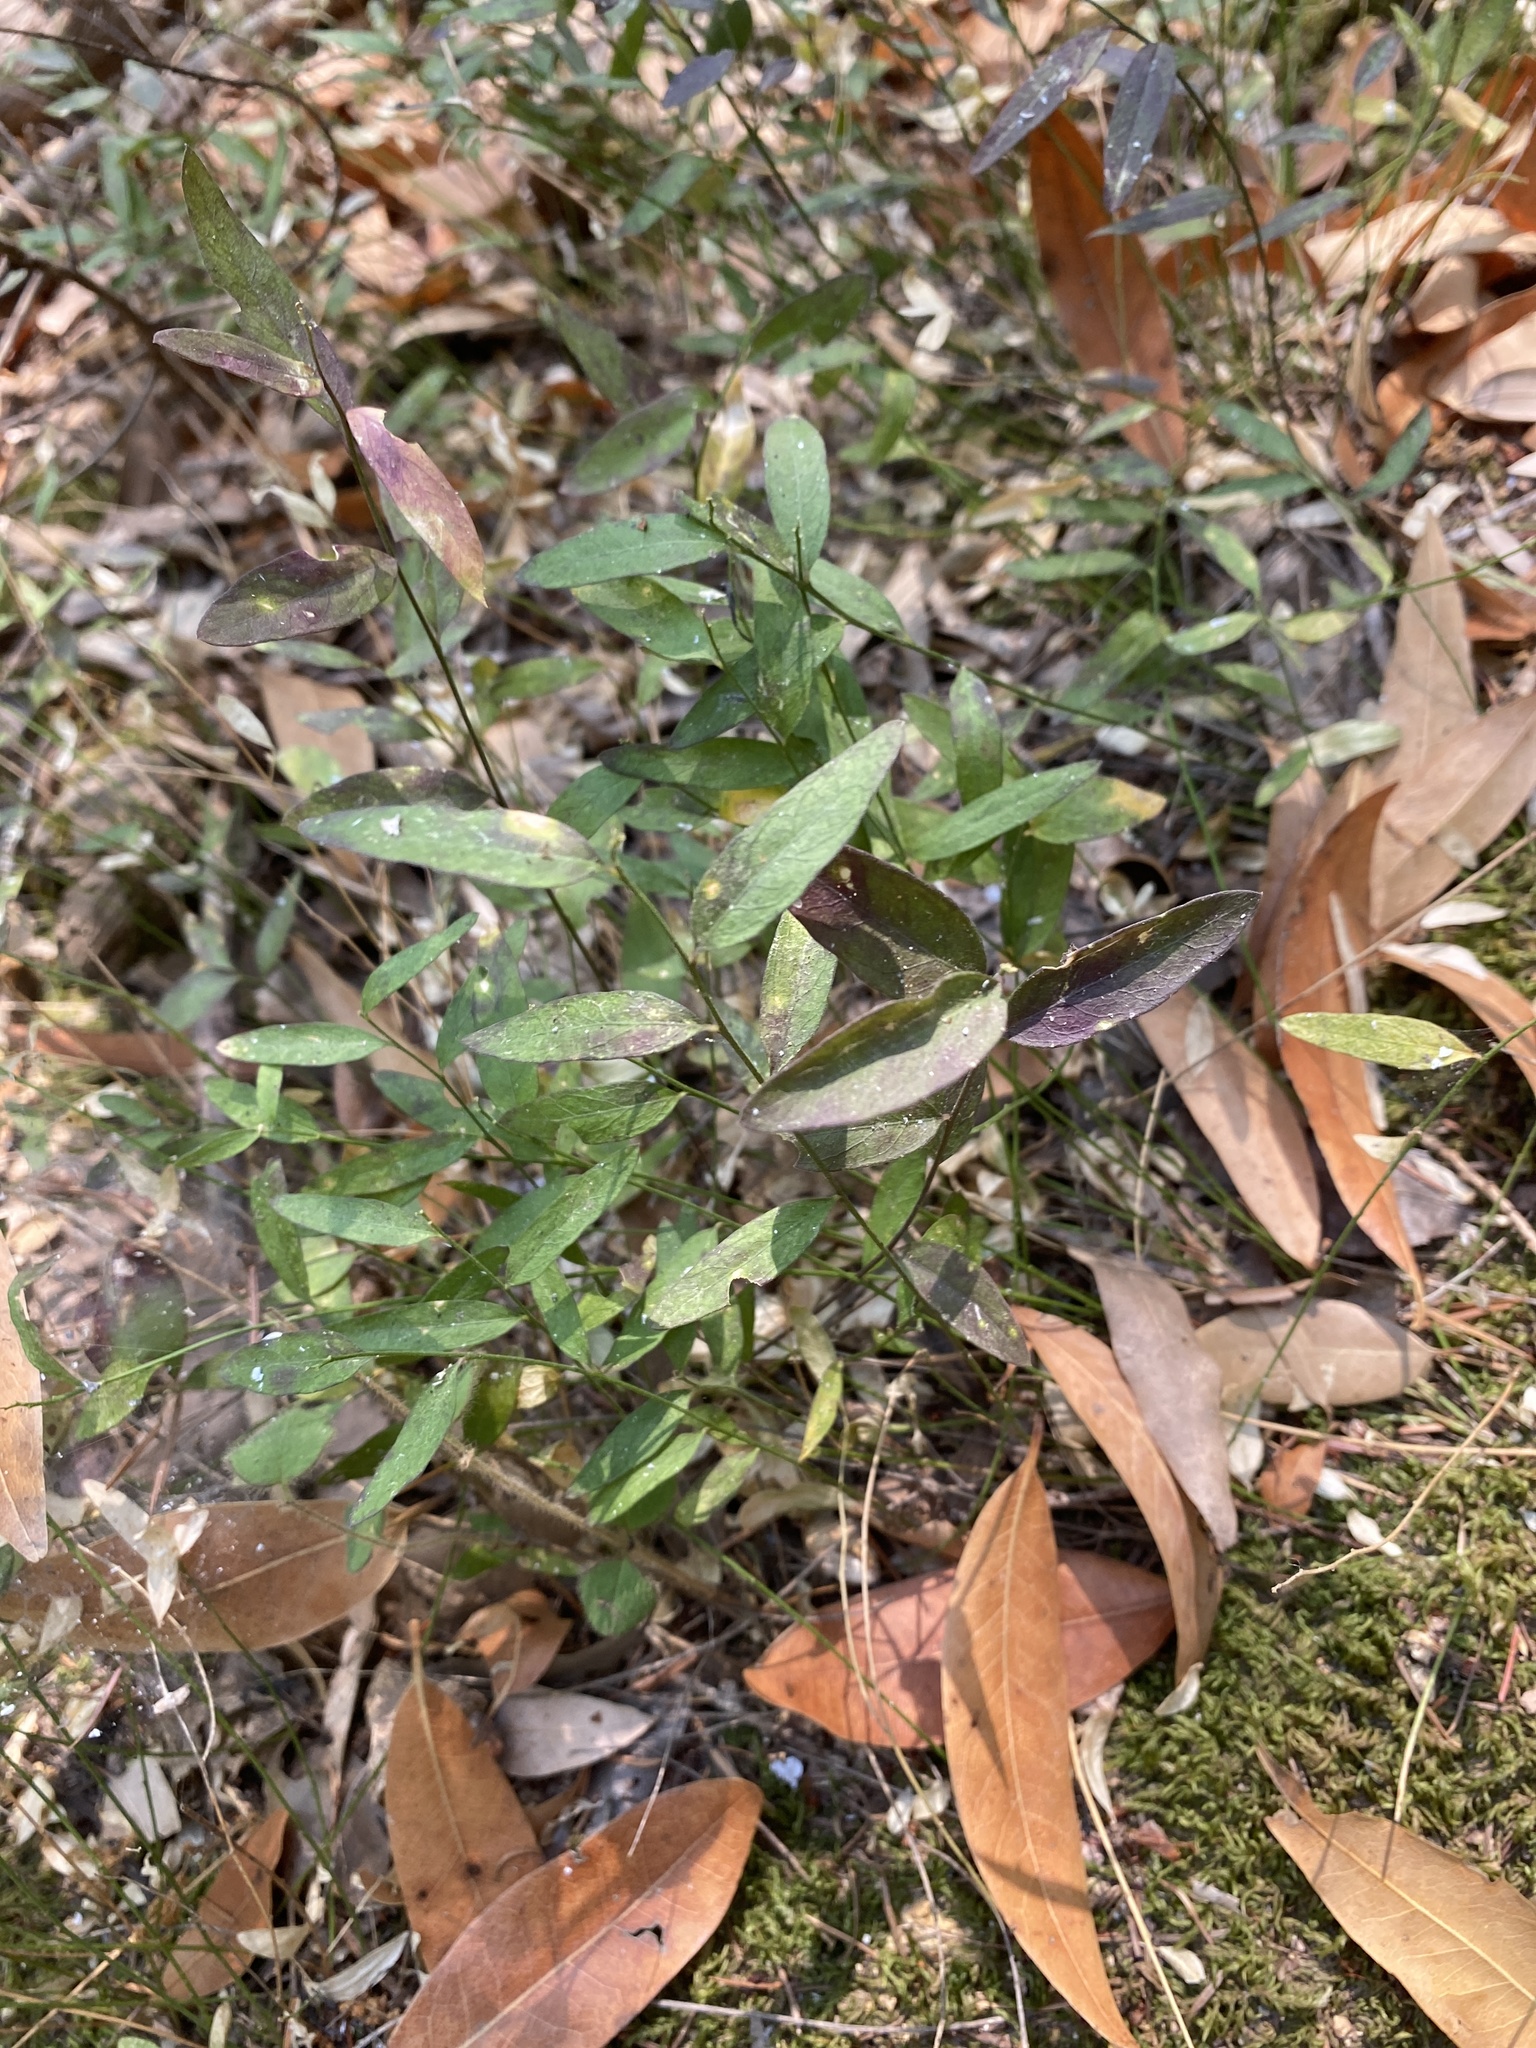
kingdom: Plantae
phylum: Tracheophyta
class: Magnoliopsida
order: Fabales
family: Polygalaceae
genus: Rhinotropis
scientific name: Rhinotropis californica
